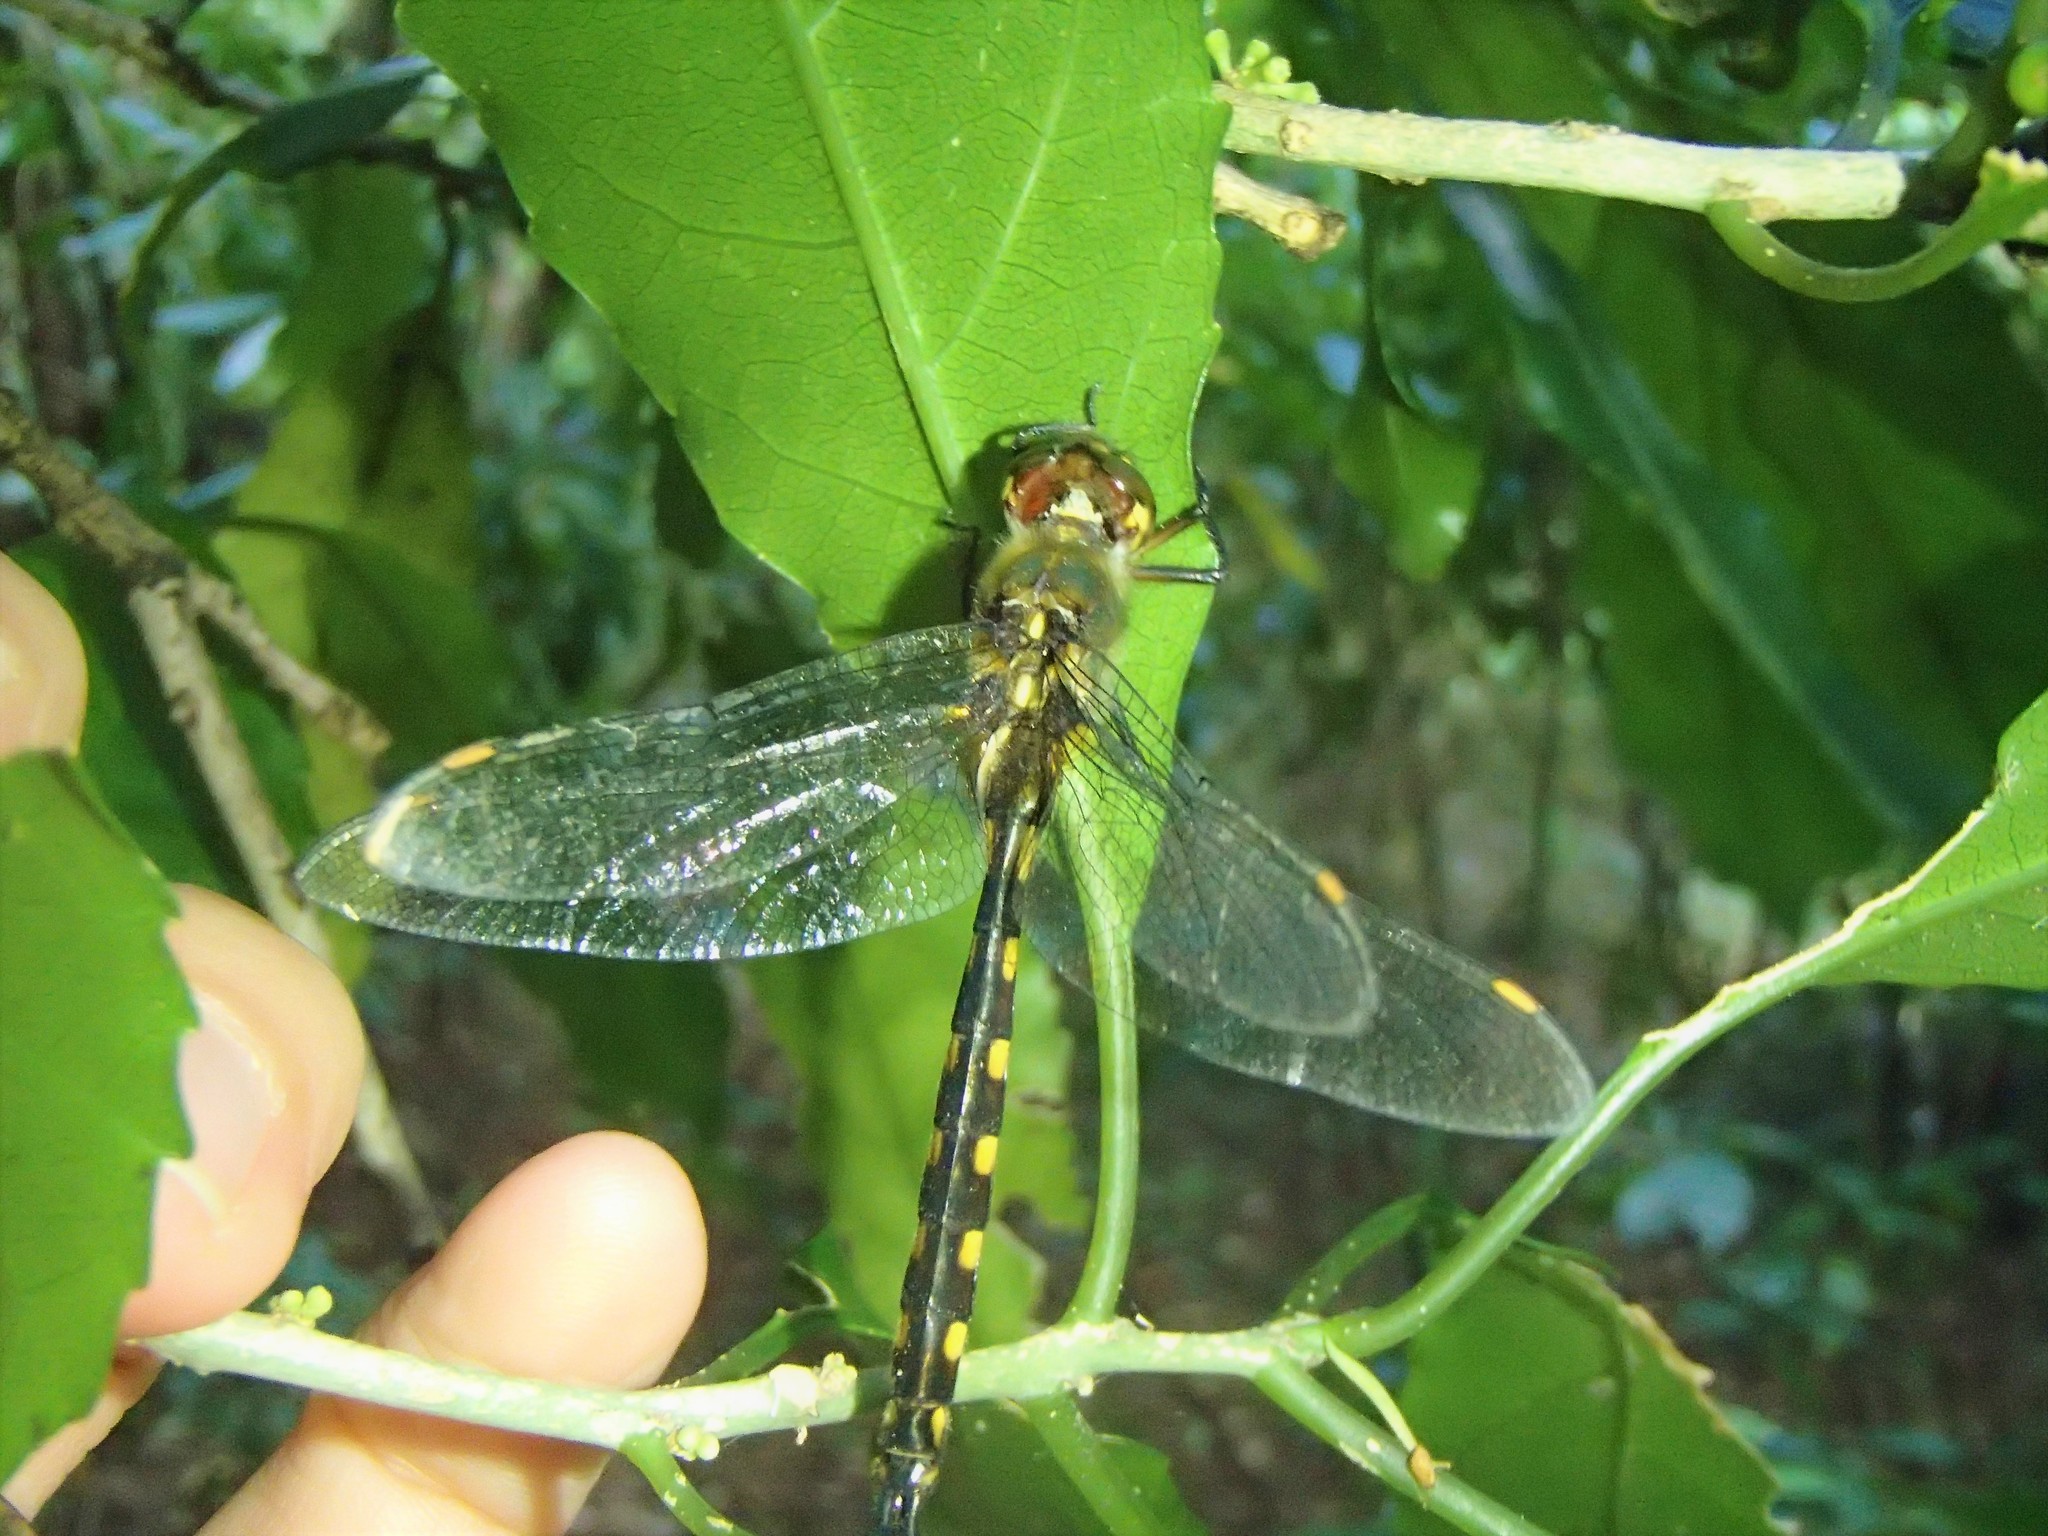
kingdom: Animalia
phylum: Arthropoda
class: Insecta
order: Odonata
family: Corduliidae
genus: Procordulia
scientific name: Procordulia grayi
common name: Yellow spotted dragonfly
